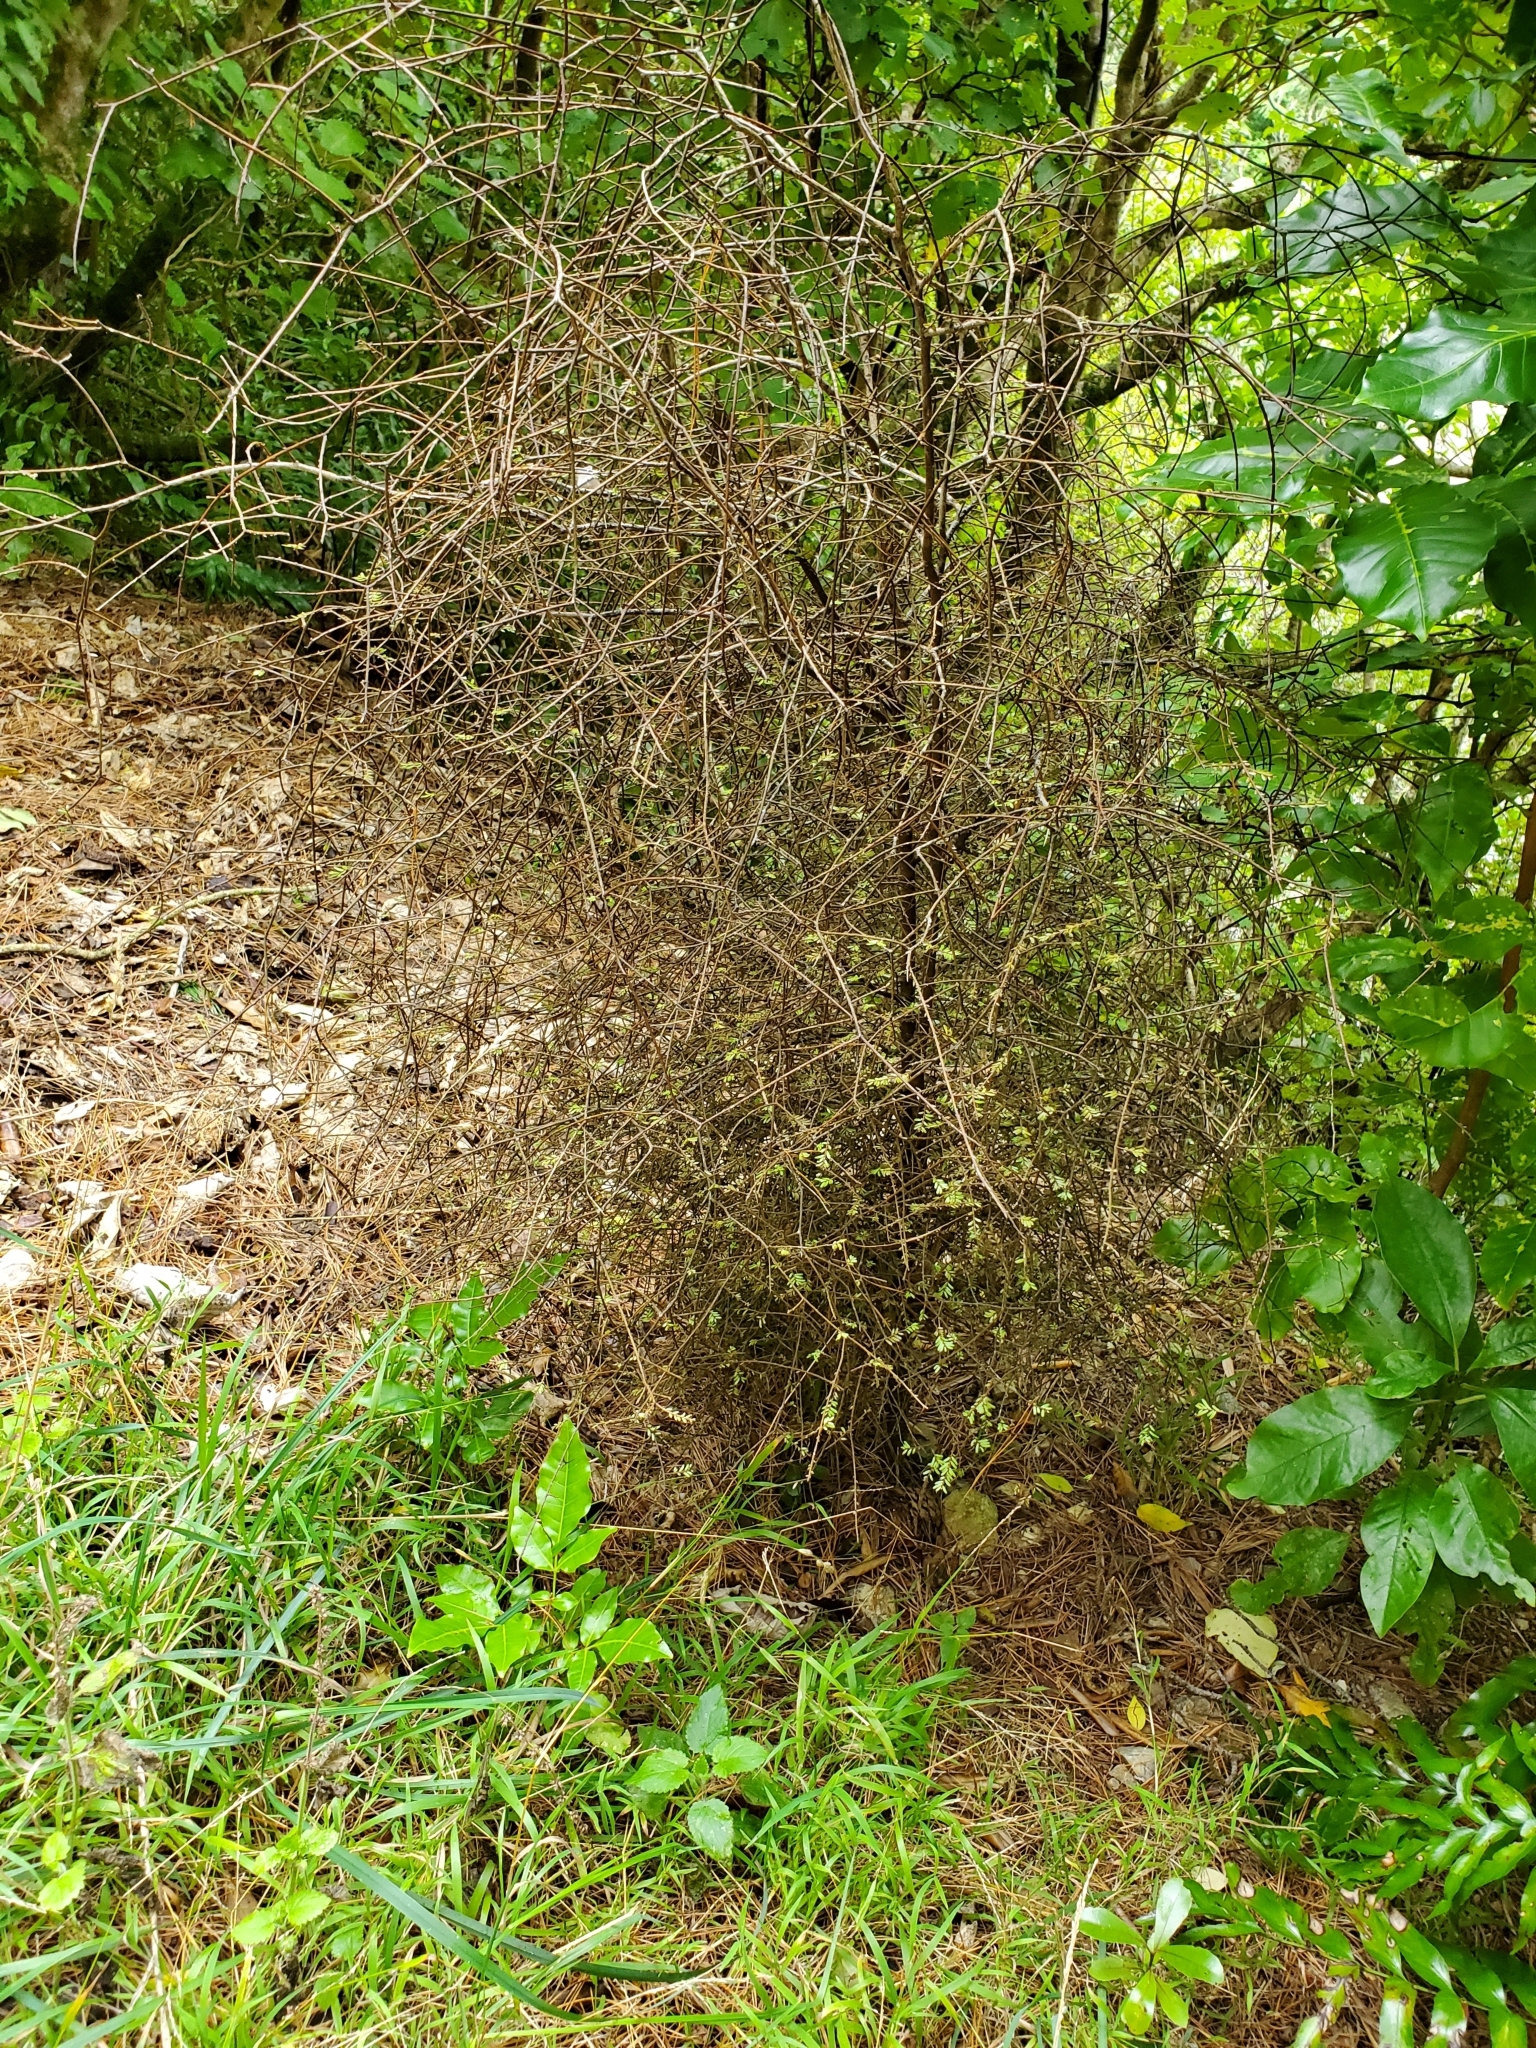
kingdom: Plantae
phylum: Tracheophyta
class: Pinopsida
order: Pinales
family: Podocarpaceae
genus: Prumnopitys
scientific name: Prumnopitys taxifolia
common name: Matai
